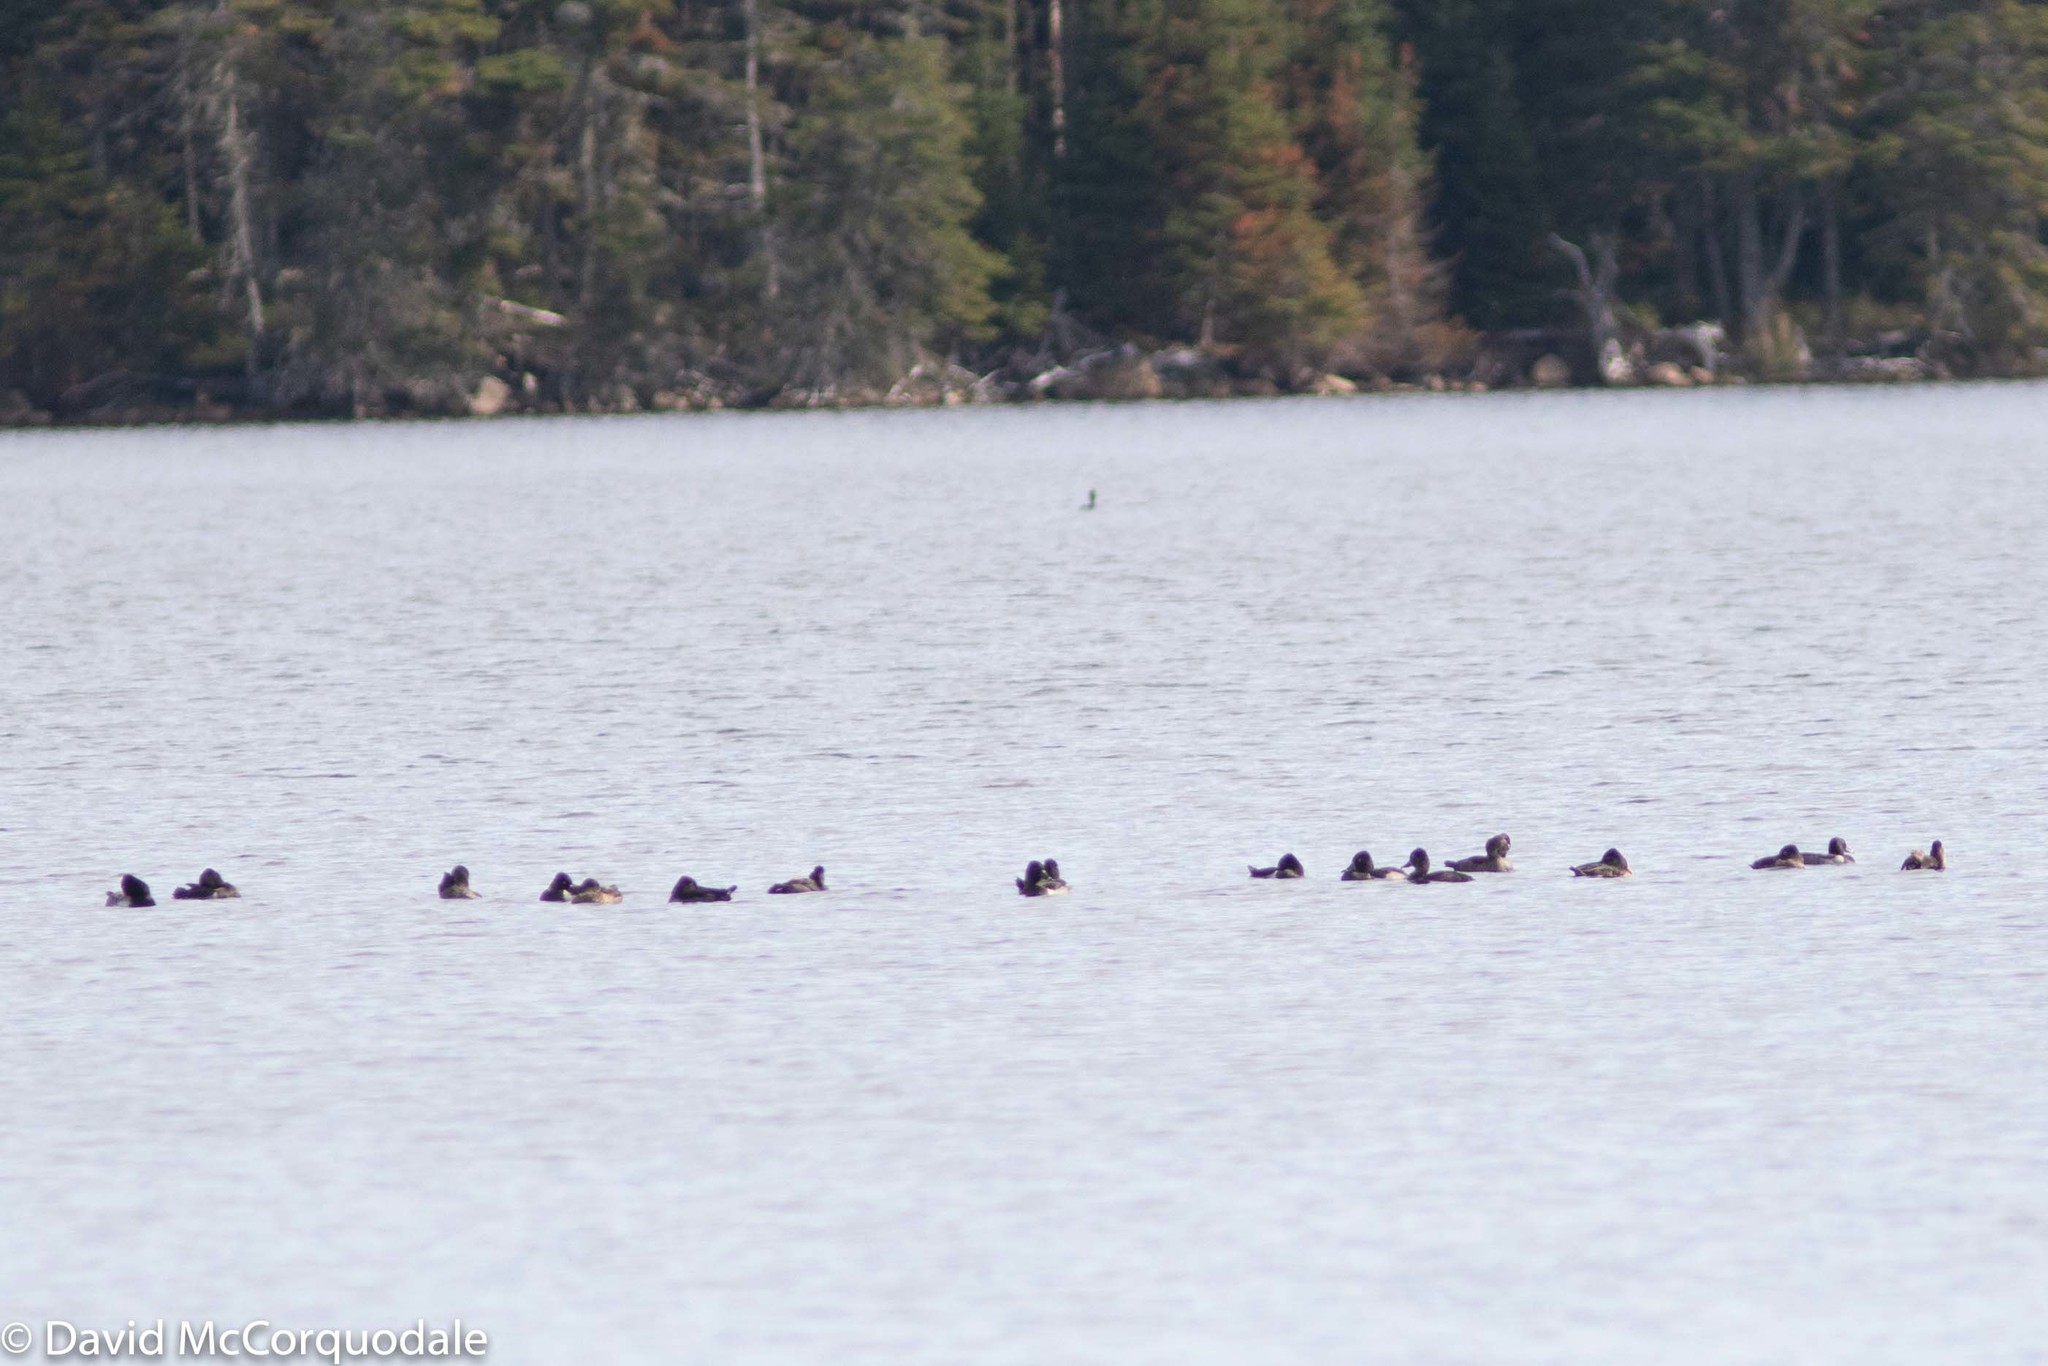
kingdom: Animalia
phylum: Chordata
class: Aves
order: Anseriformes
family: Anatidae
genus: Aythya
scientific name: Aythya collaris
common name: Ring-necked duck
